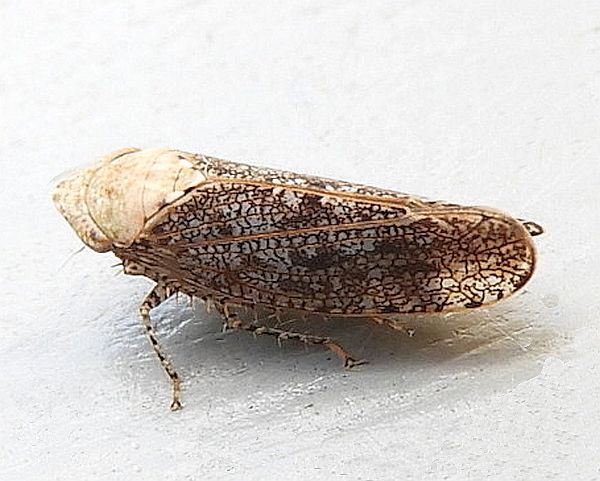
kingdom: Animalia
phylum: Arthropoda
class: Insecta
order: Hemiptera
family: Cicadellidae
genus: Paraphlepsius
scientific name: Paraphlepsius fulvidorsum
